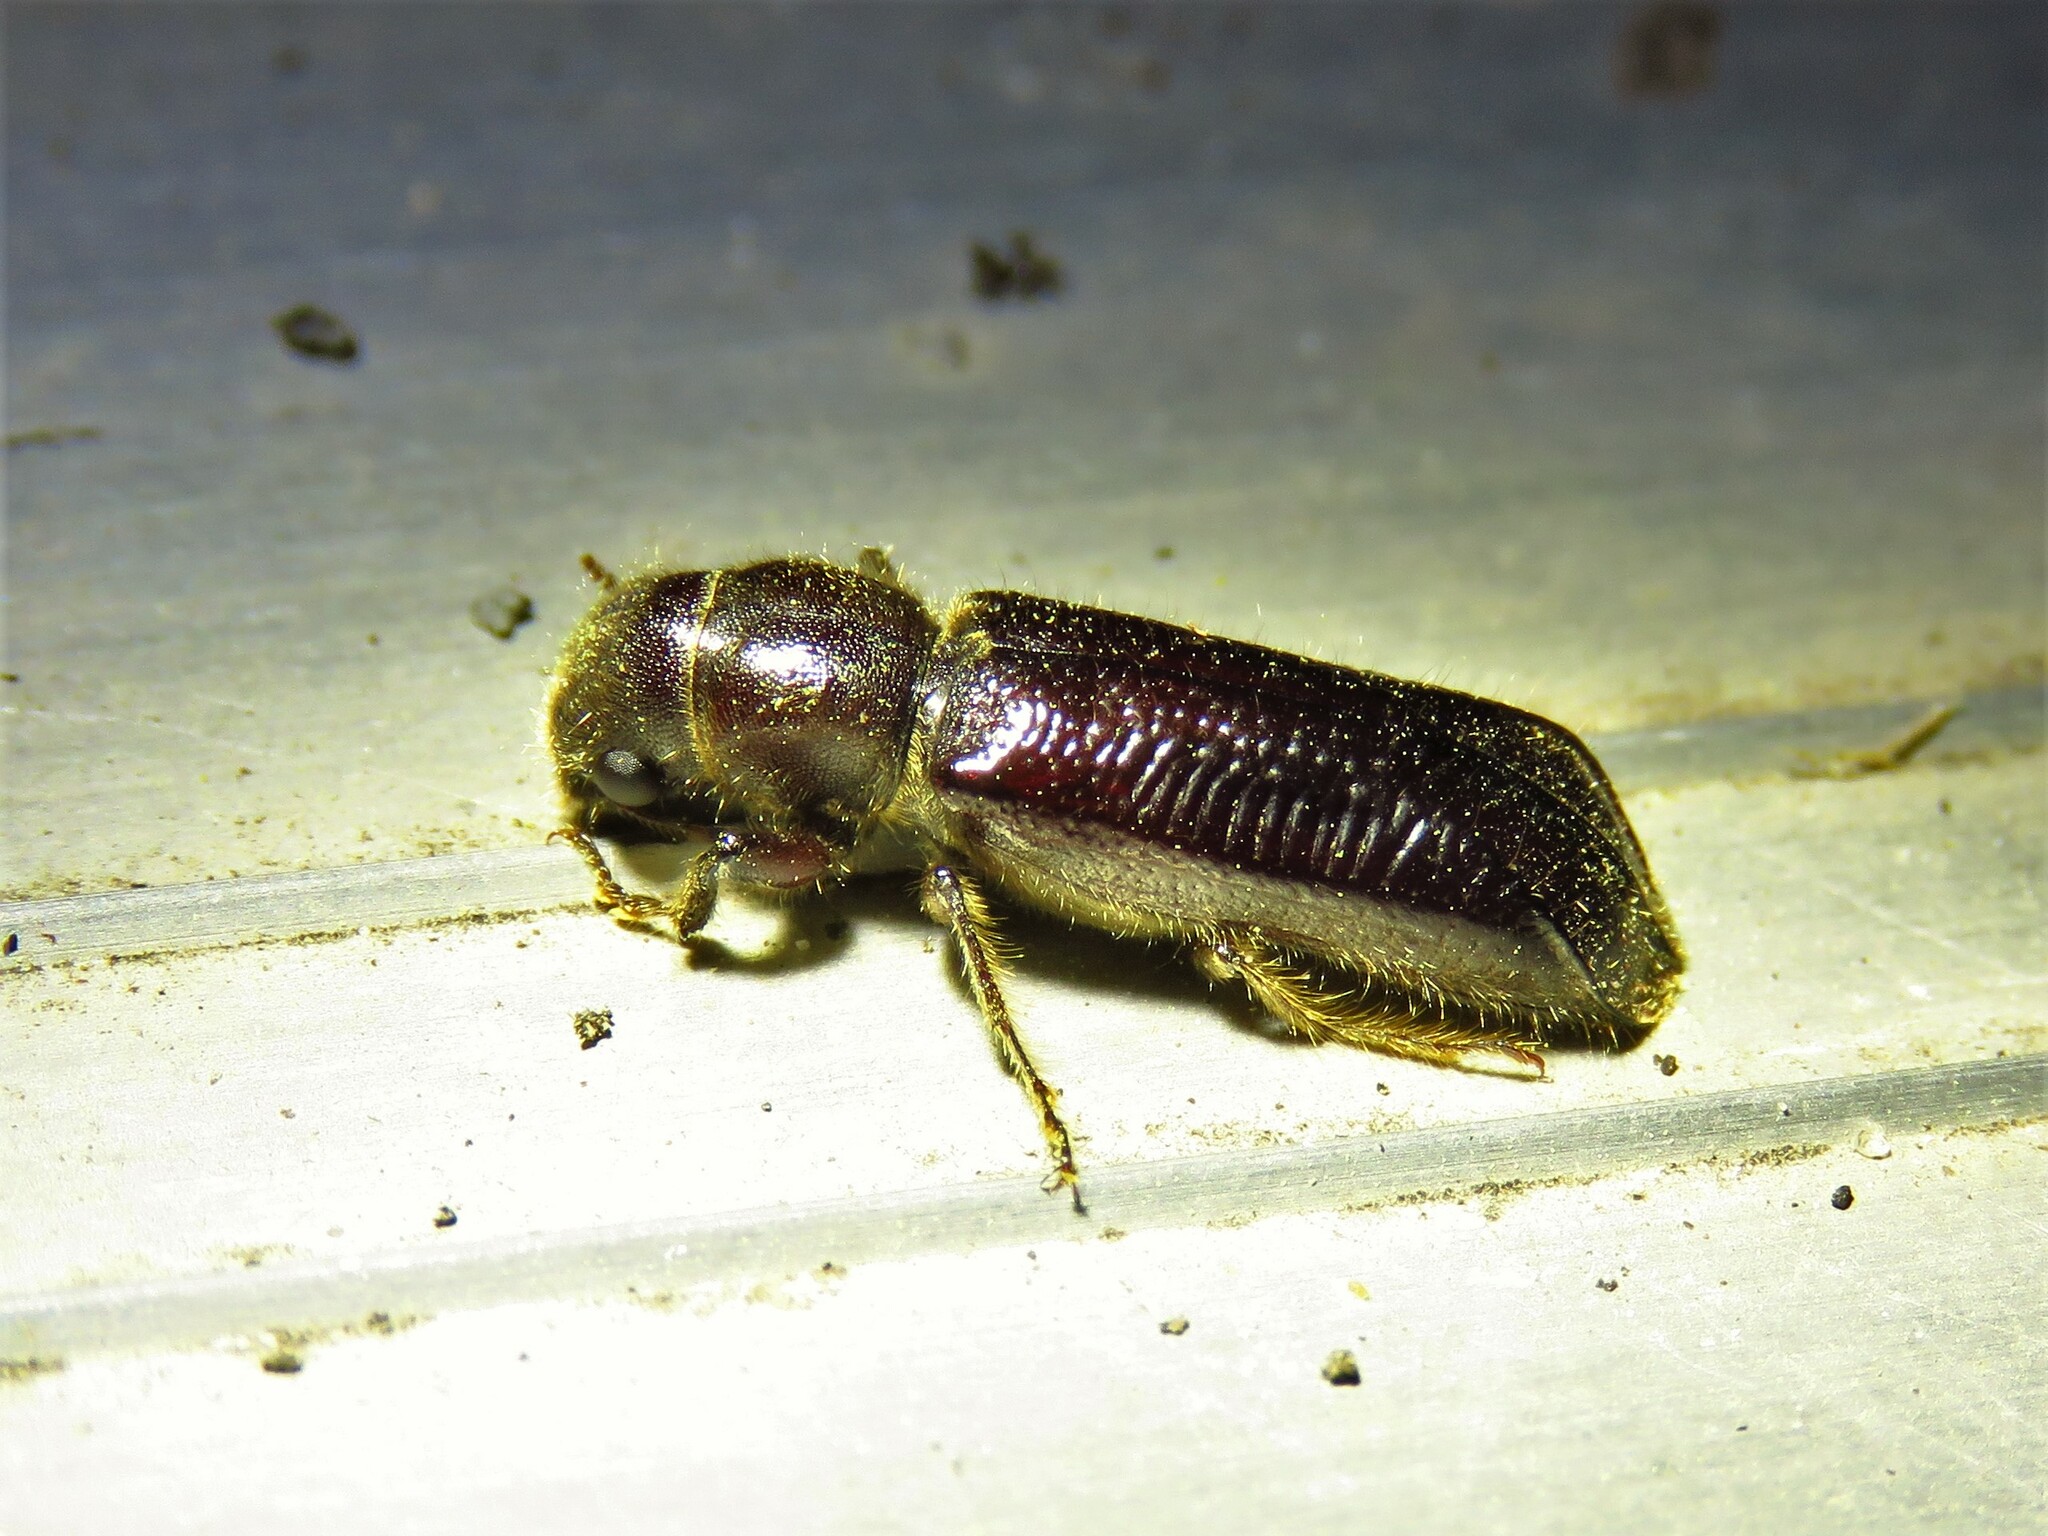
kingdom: Animalia
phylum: Arthropoda
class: Insecta
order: Coleoptera
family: Bostrichidae
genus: Melalgus
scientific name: Melalgus plicatus
